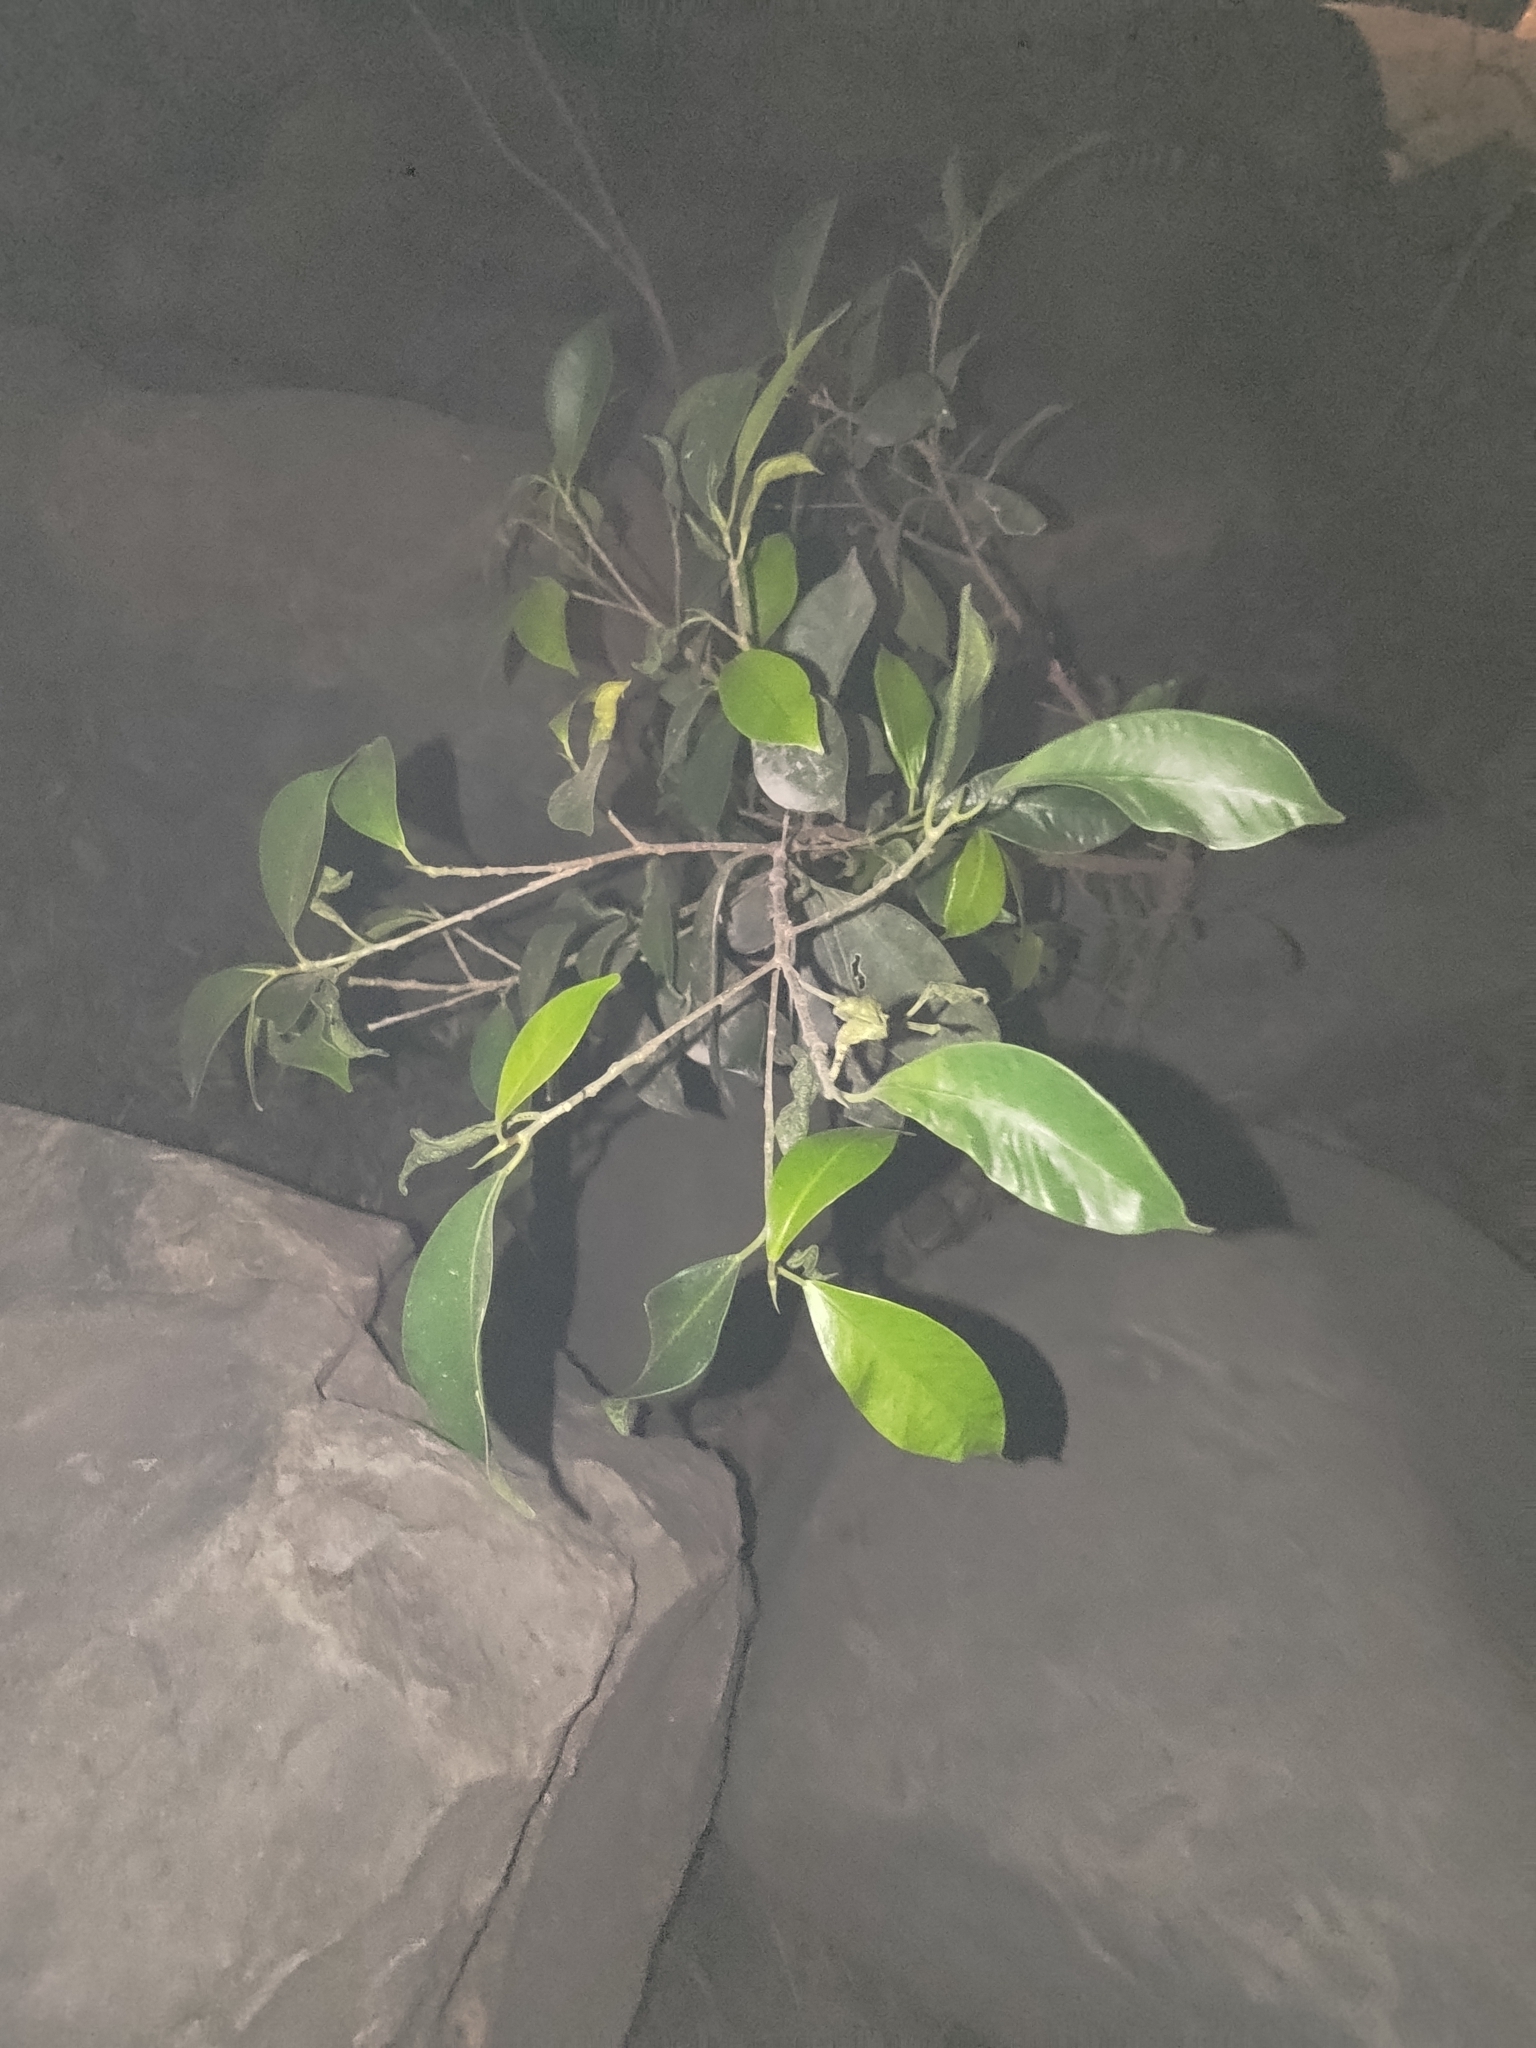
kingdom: Plantae
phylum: Tracheophyta
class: Magnoliopsida
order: Rosales
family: Moraceae
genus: Ficus
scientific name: Ficus microcarpa
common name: Chinese banyan
